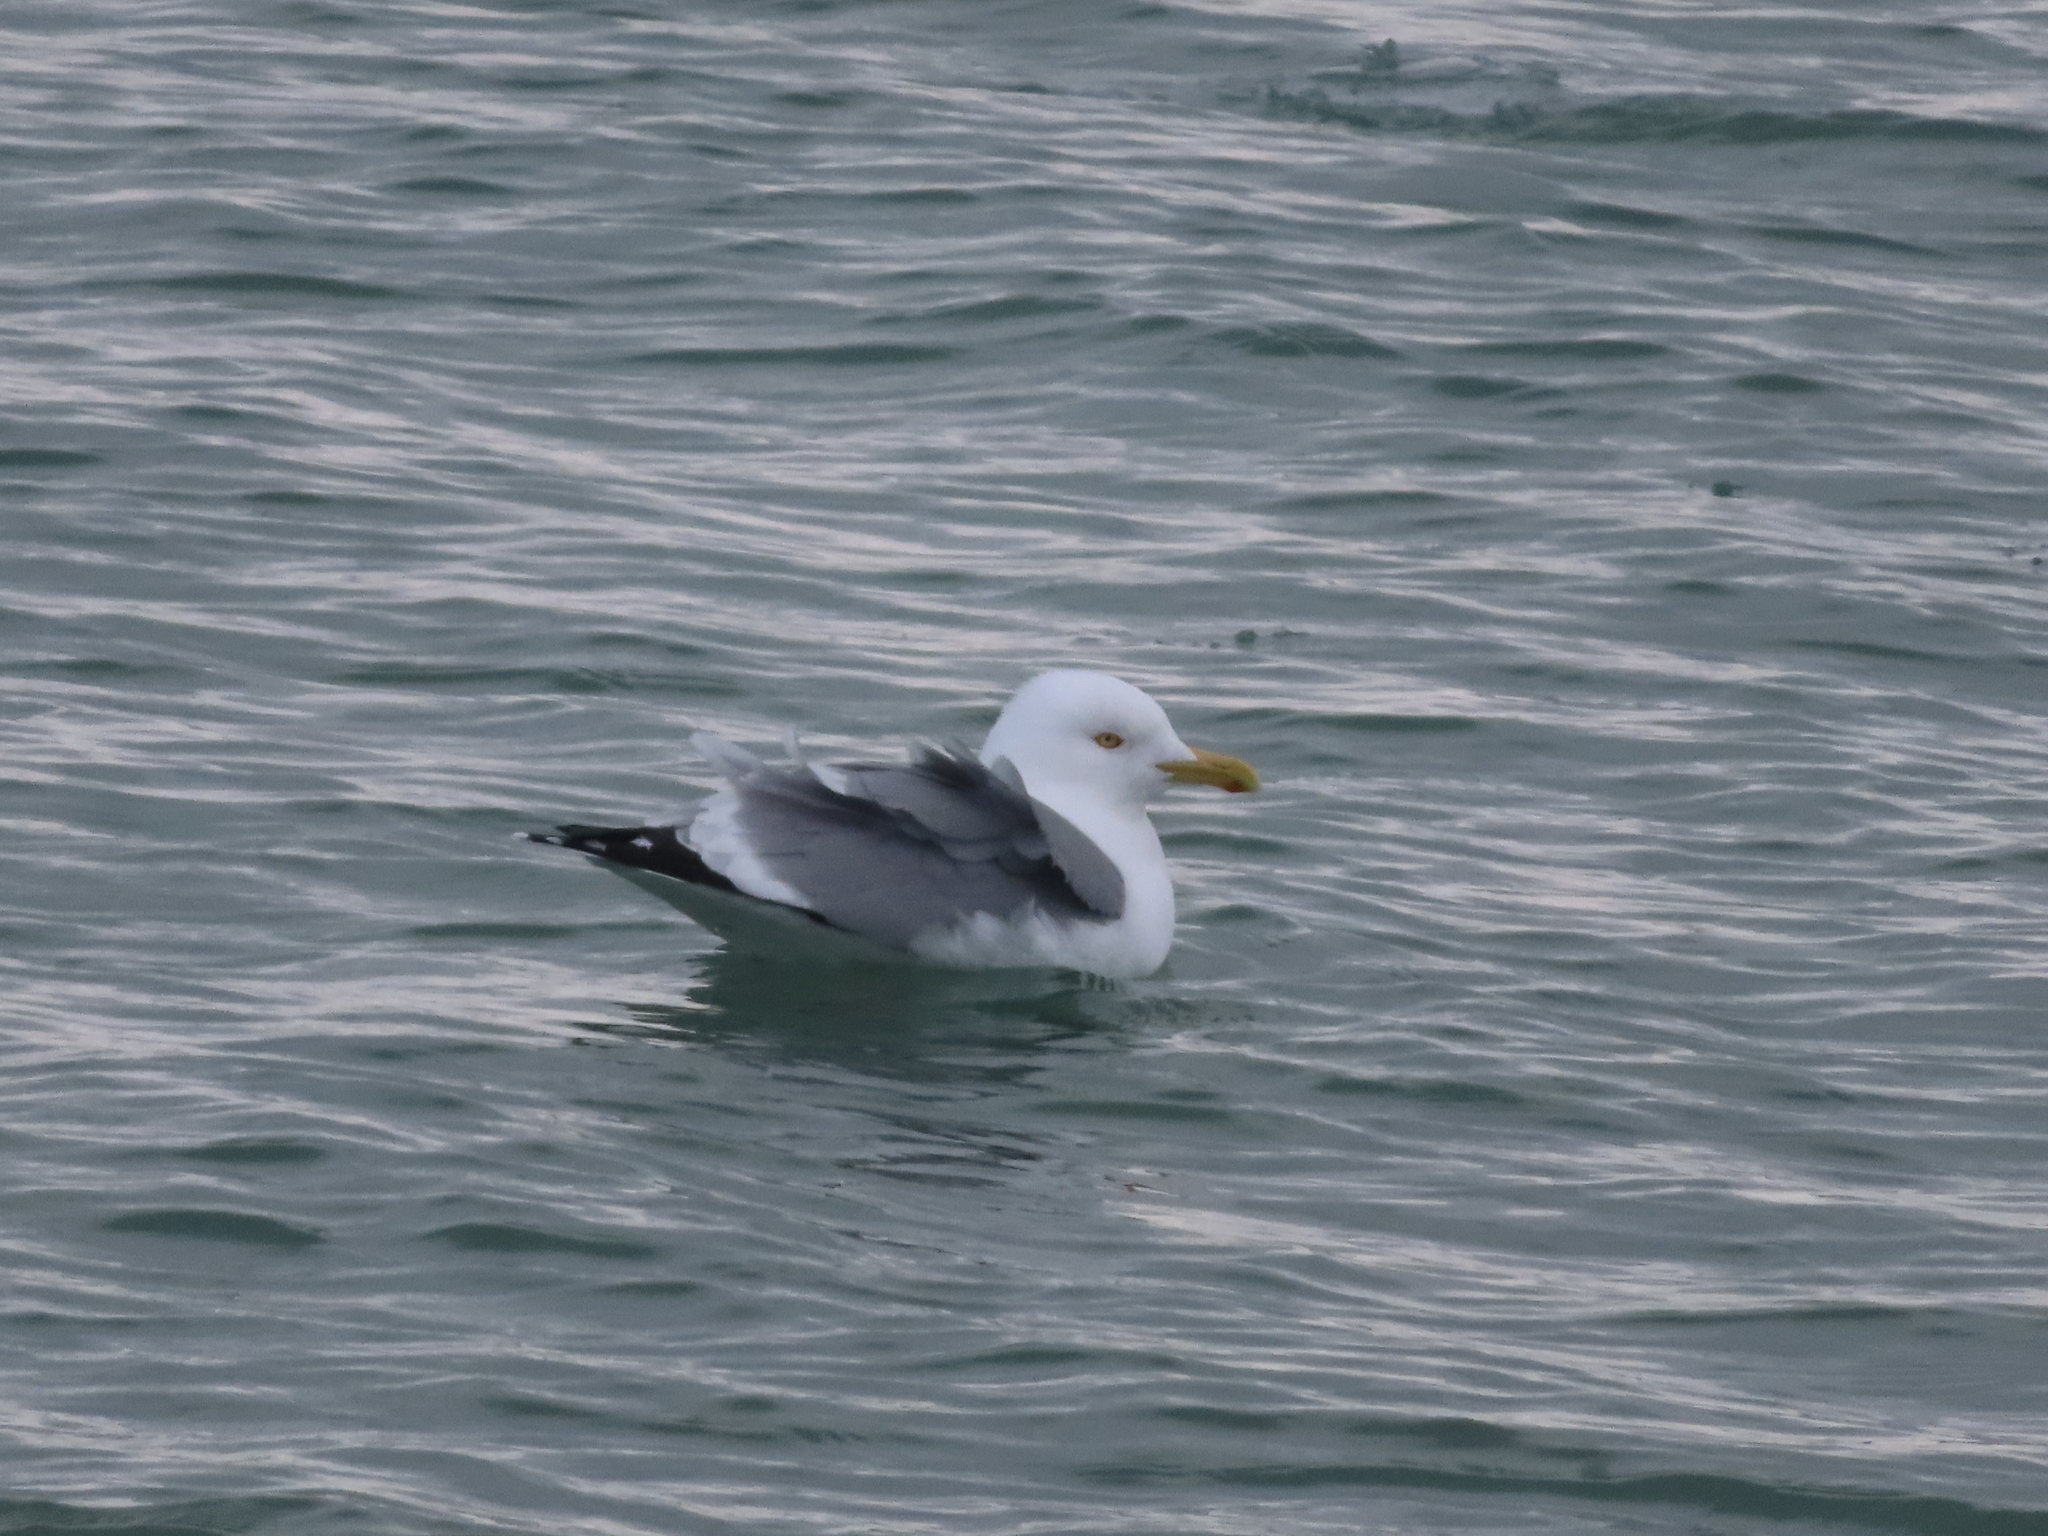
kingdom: Animalia
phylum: Chordata
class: Aves
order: Charadriiformes
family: Laridae
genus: Larus
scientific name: Larus argentatus
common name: Herring gull
